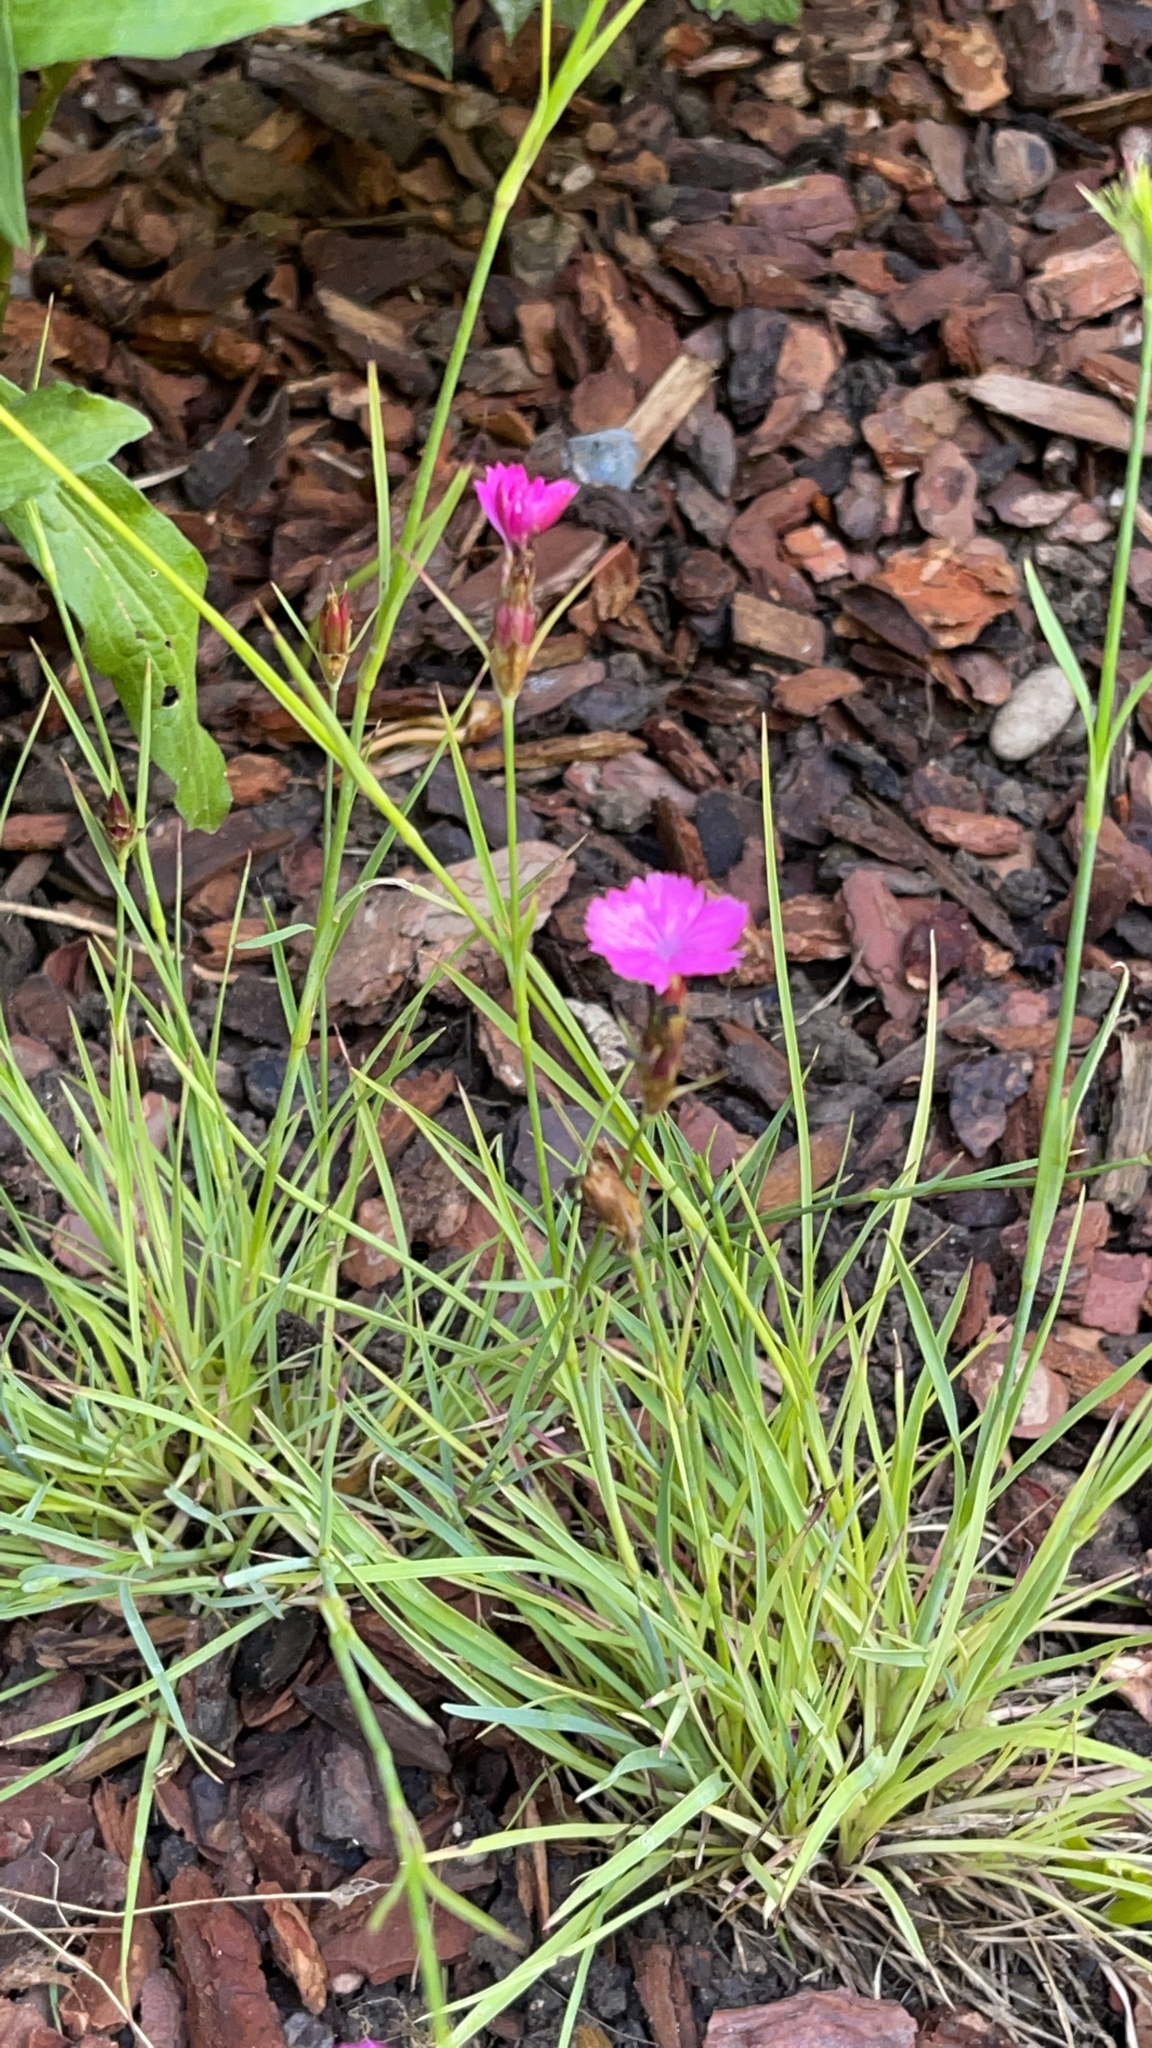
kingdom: Plantae
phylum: Tracheophyta
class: Magnoliopsida
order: Caryophyllales
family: Caryophyllaceae
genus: Dianthus
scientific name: Dianthus carthusianorum
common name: Carthusian pink
